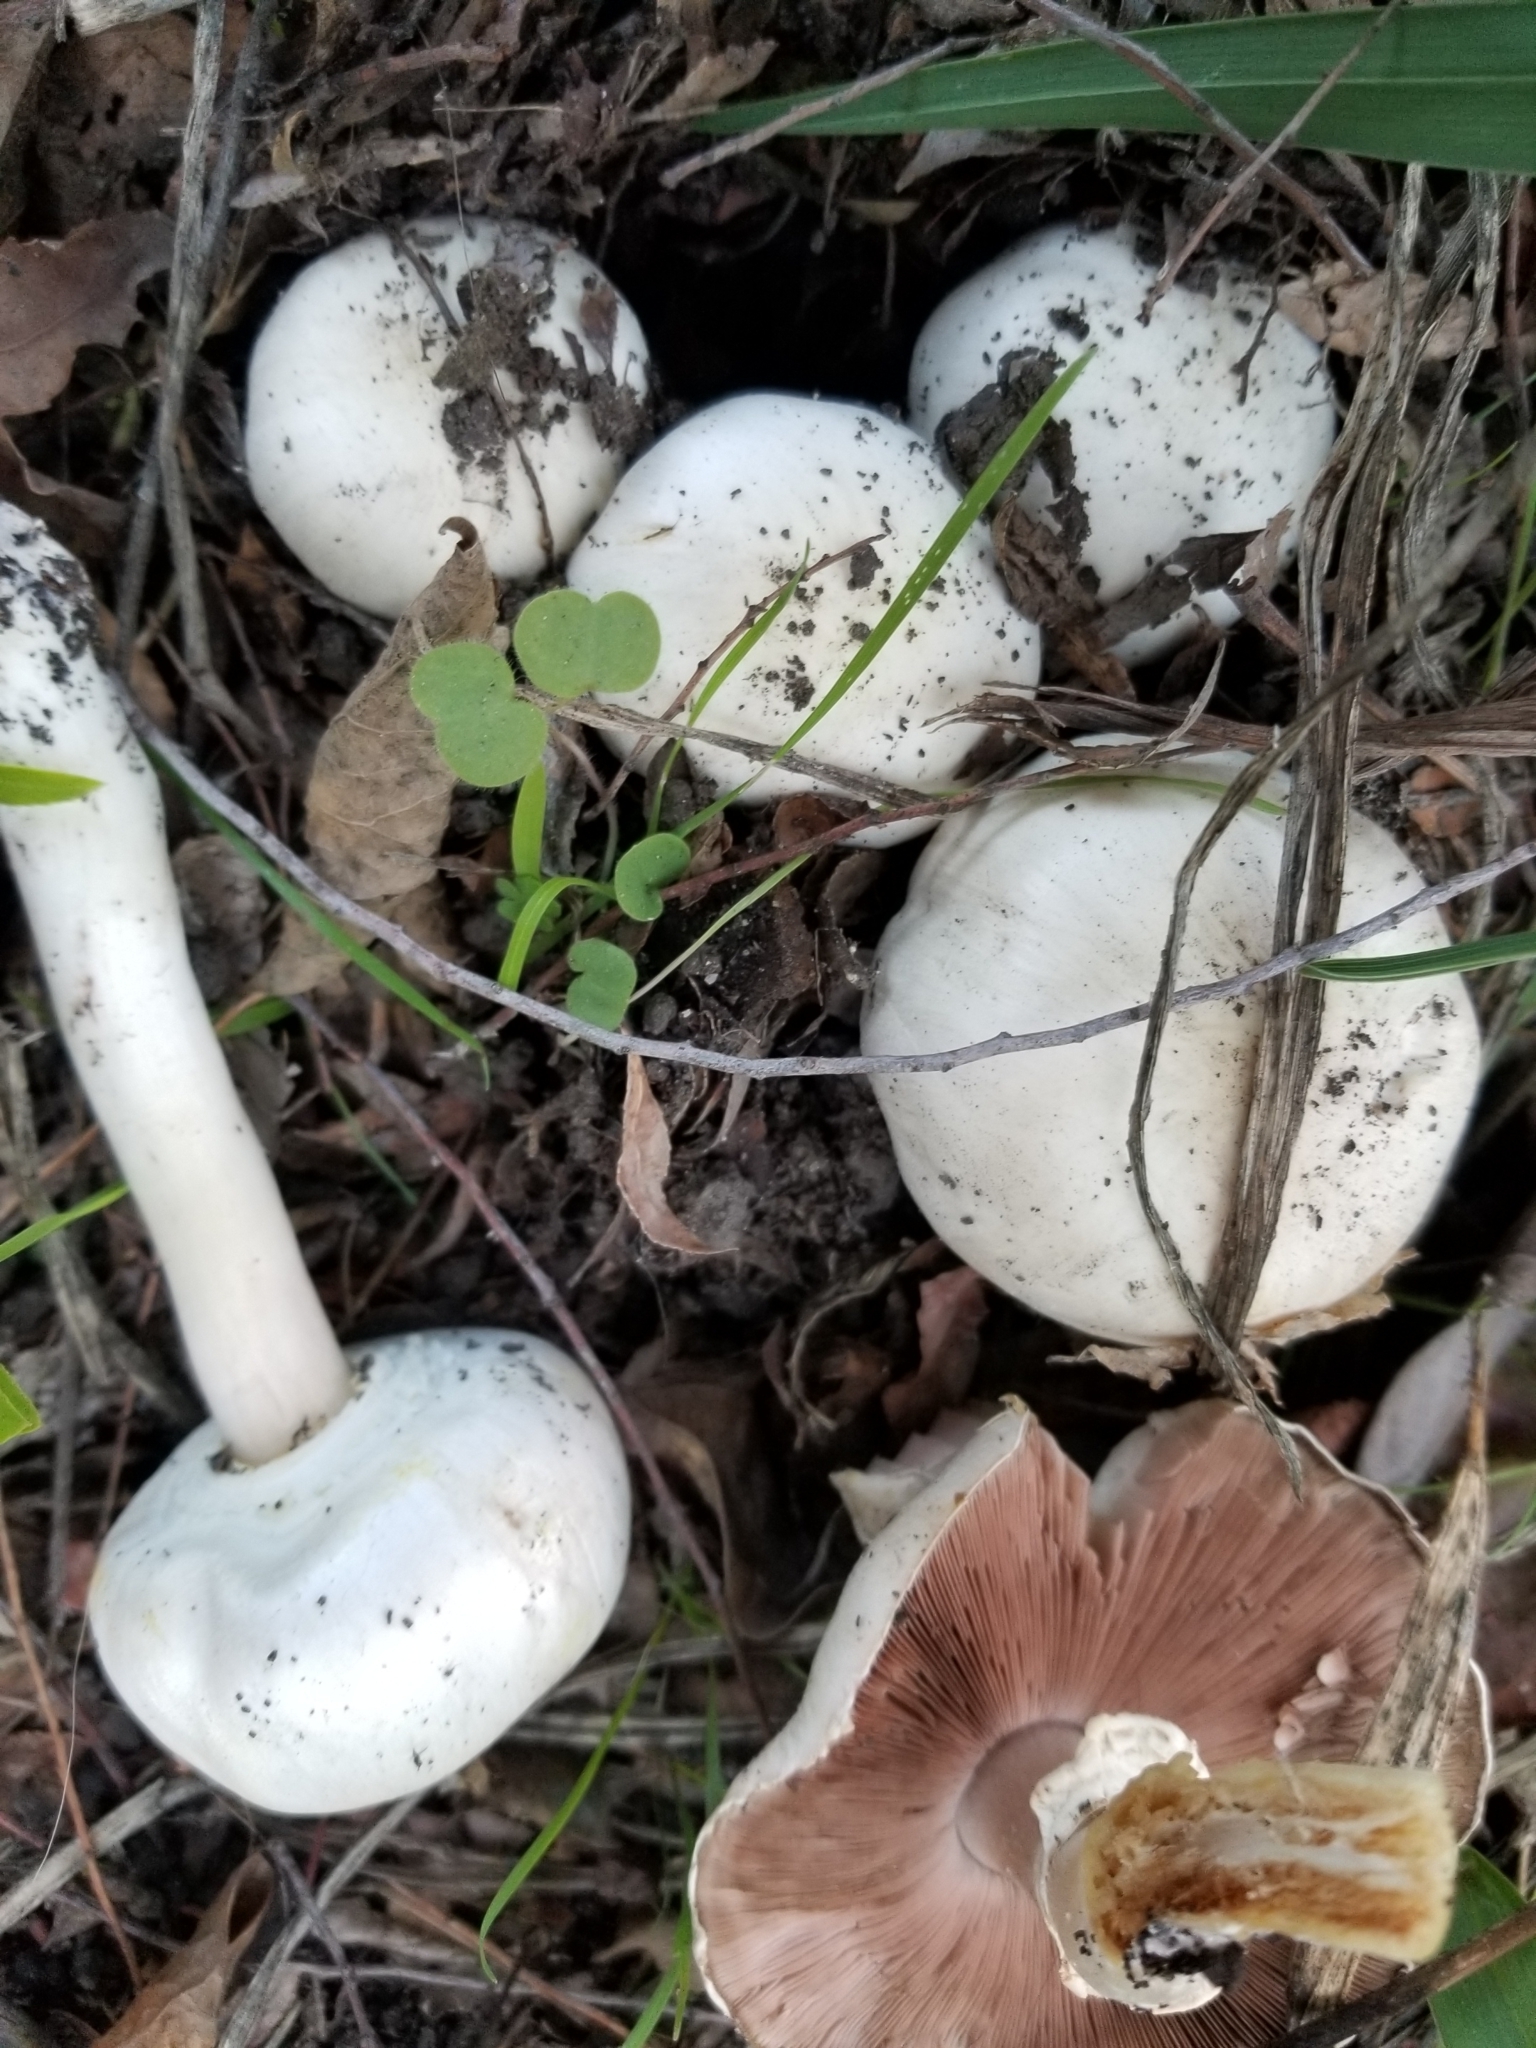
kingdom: Fungi
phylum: Basidiomycota
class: Agaricomycetes
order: Agaricales
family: Agaricaceae
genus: Agaricus
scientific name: Agaricus xanthodermus
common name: Yellow stainer
